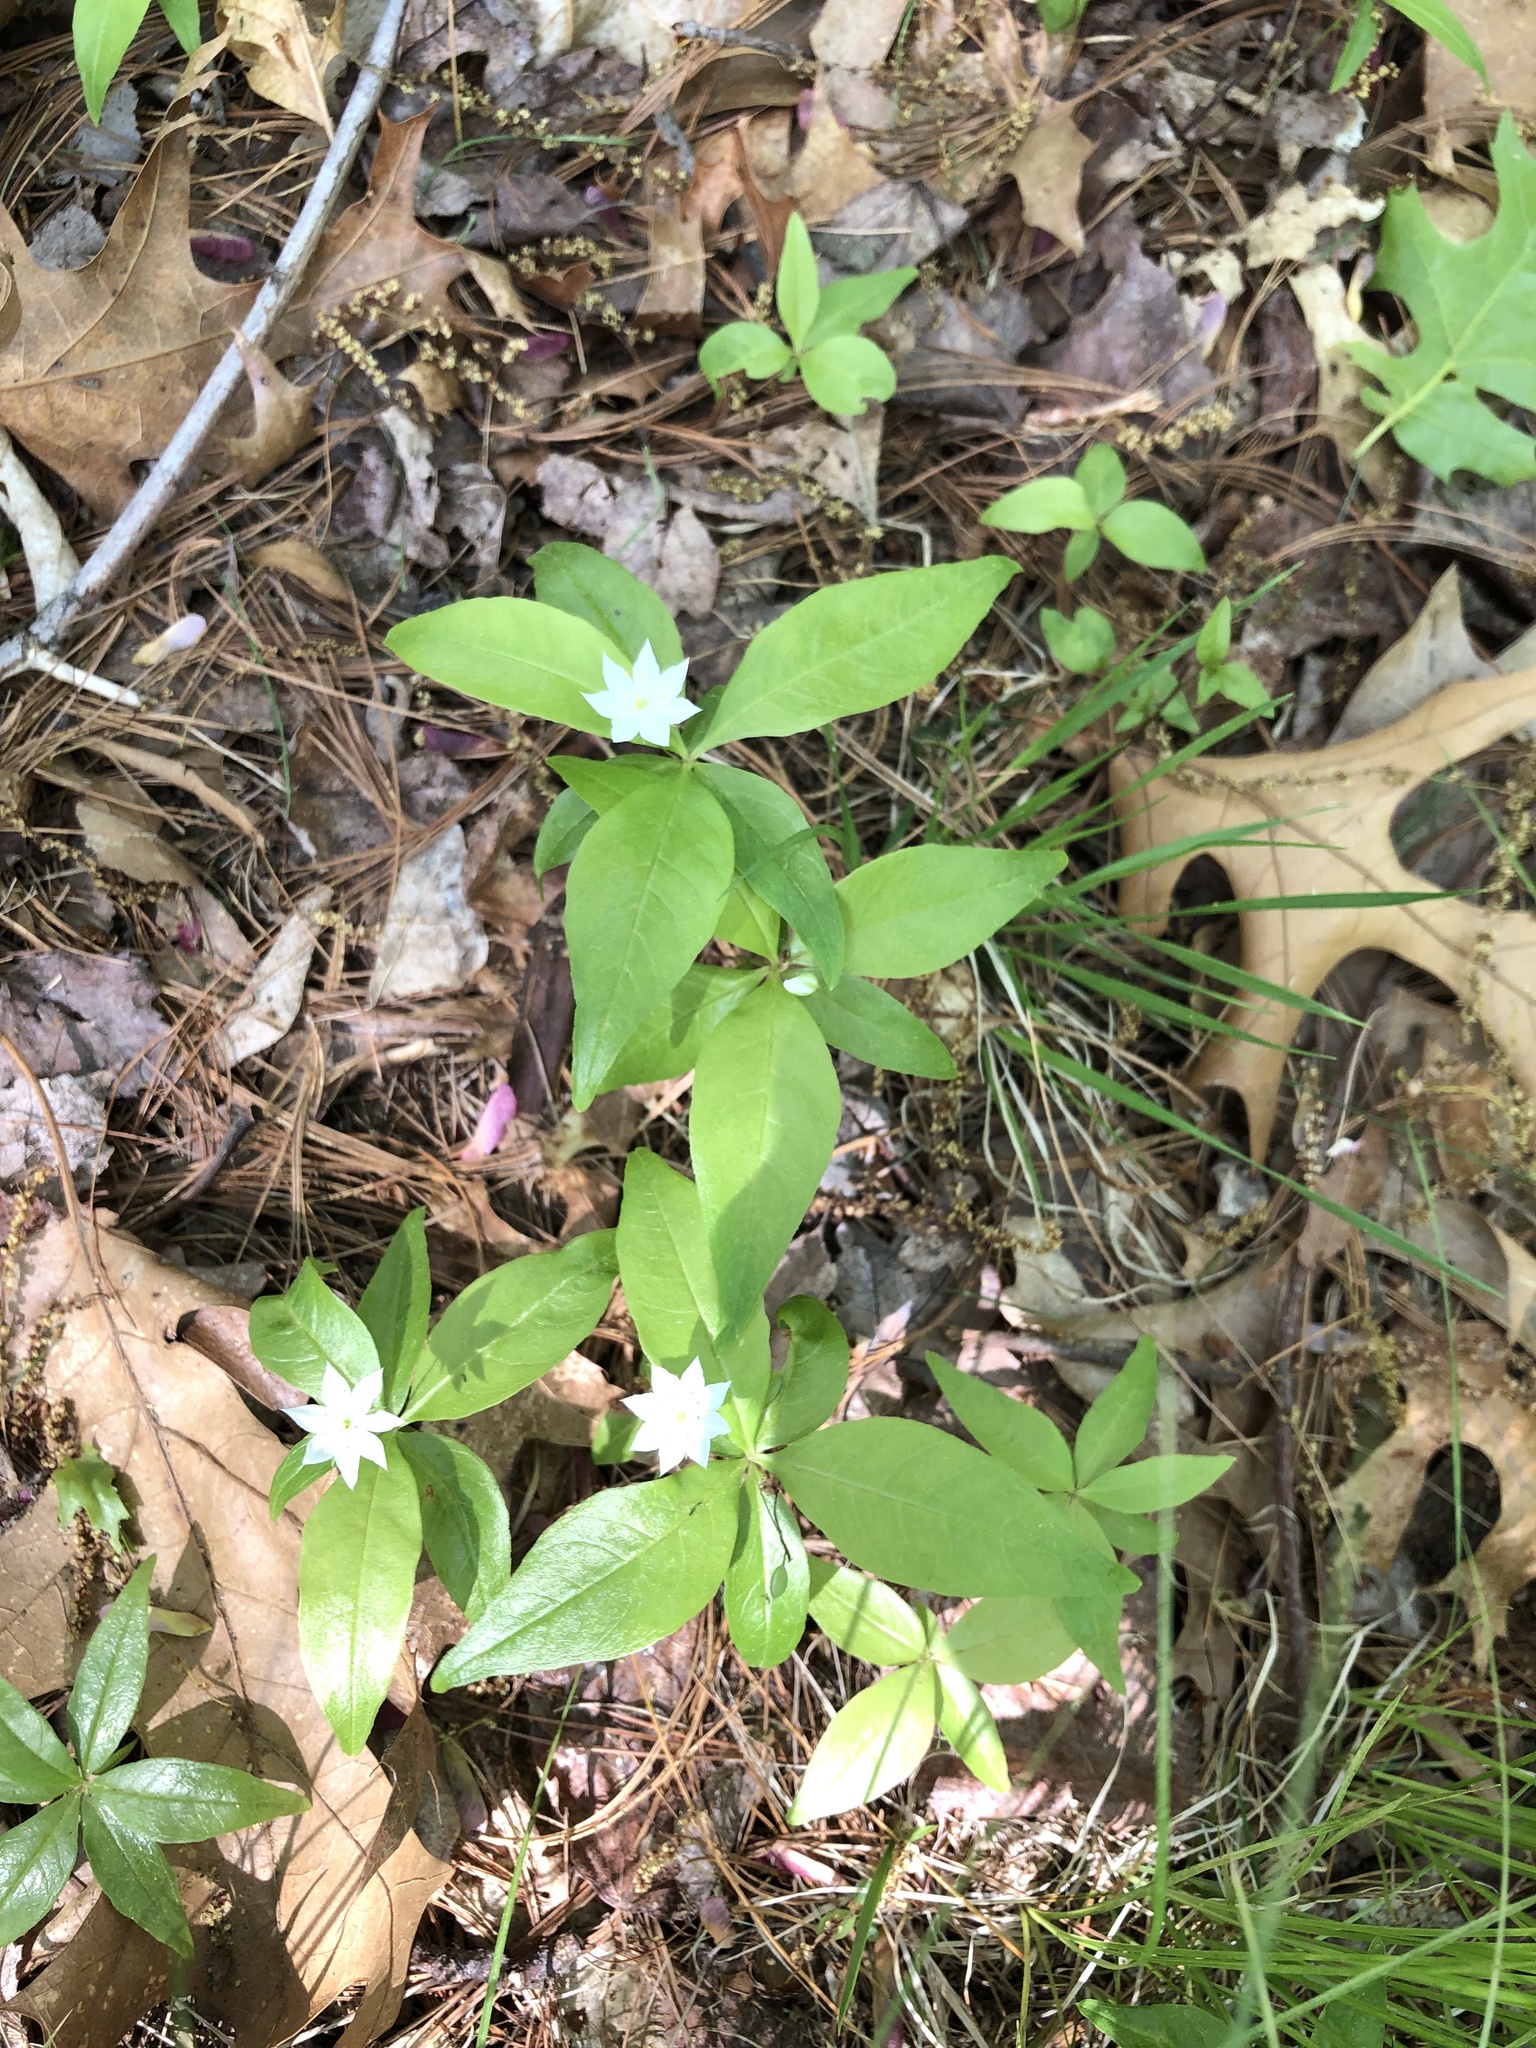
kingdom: Plantae
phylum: Tracheophyta
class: Magnoliopsida
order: Ericales
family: Primulaceae
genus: Lysimachia
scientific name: Lysimachia borealis
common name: American starflower
